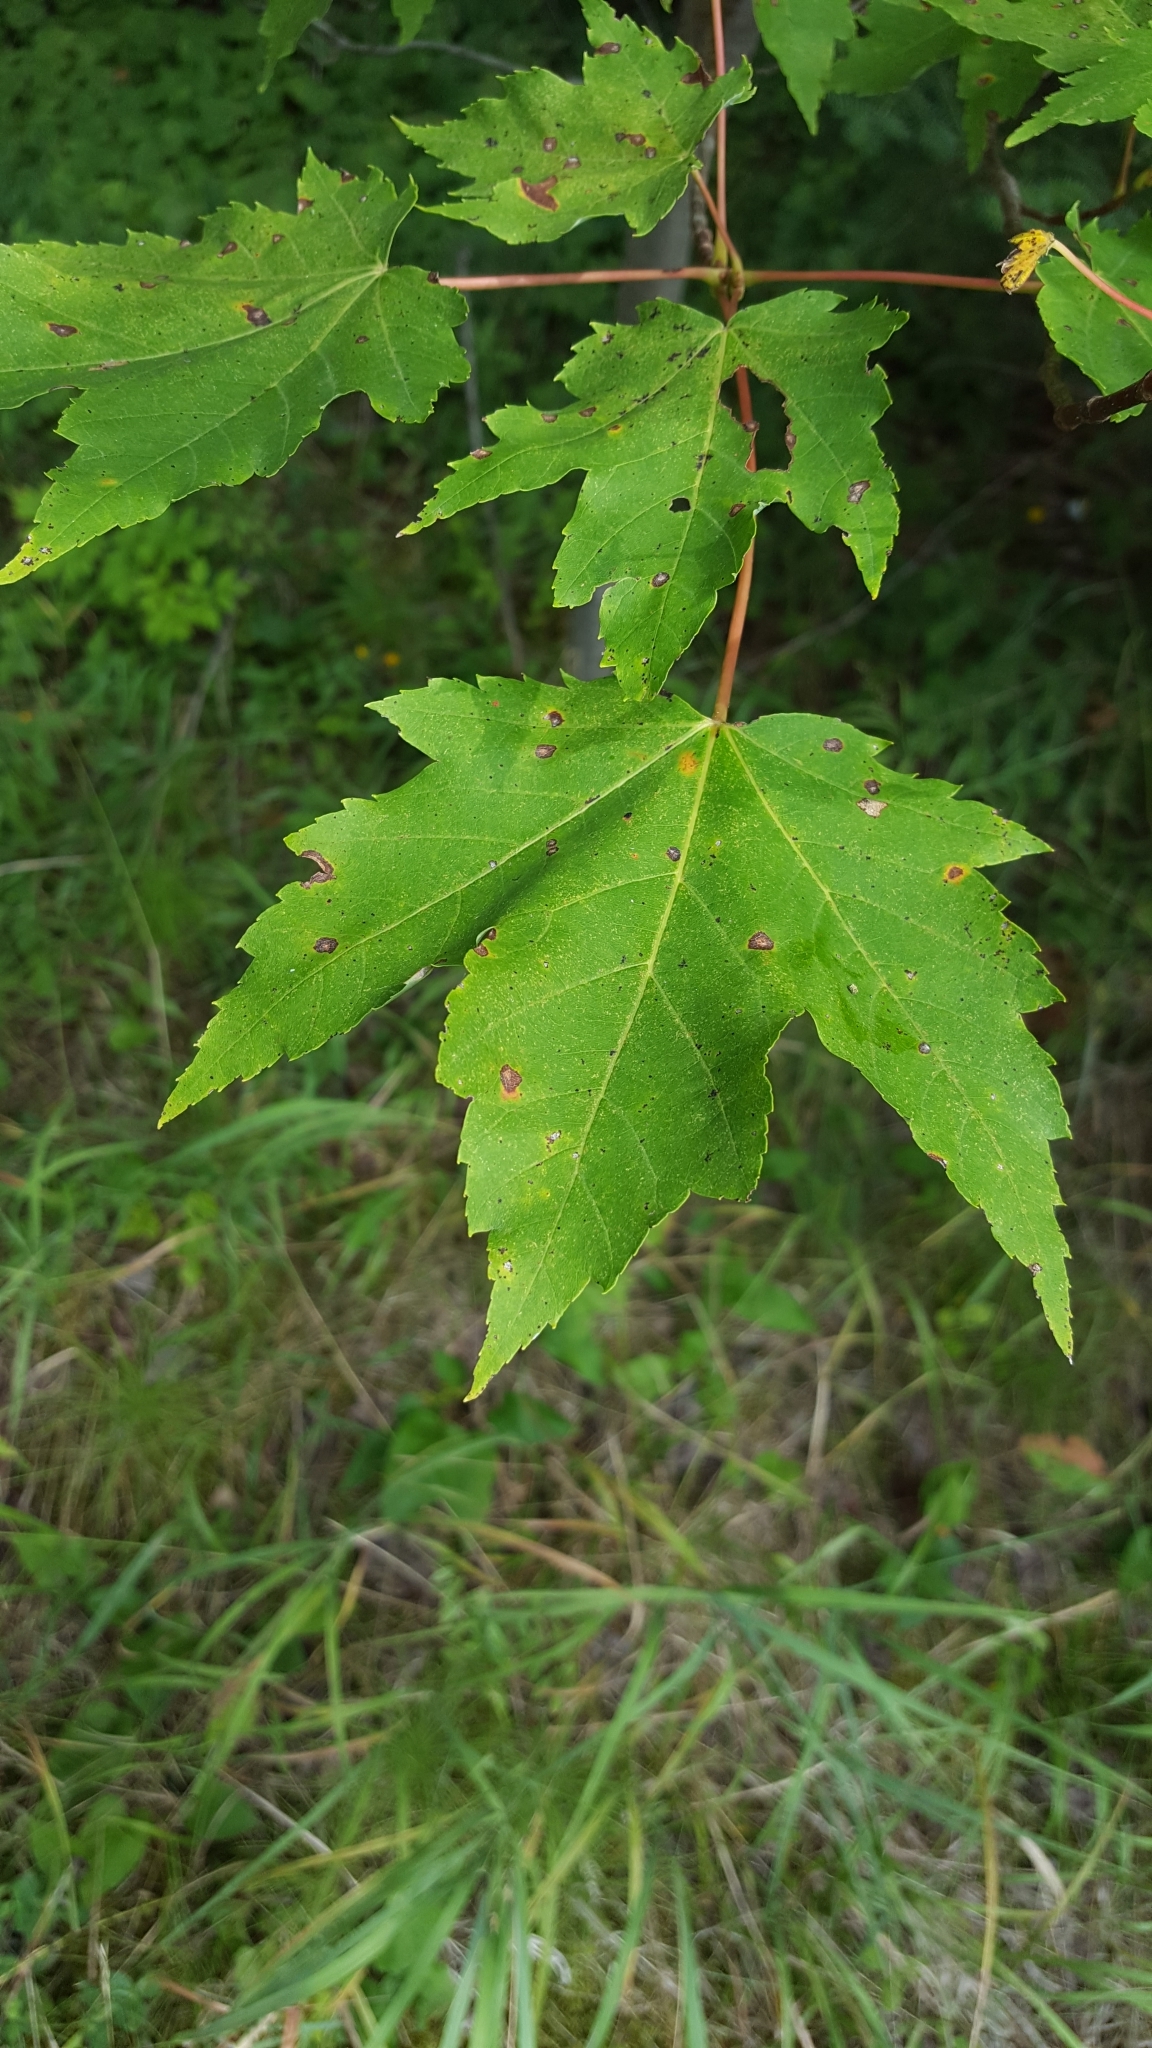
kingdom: Plantae
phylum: Tracheophyta
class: Magnoliopsida
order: Sapindales
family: Sapindaceae
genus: Acer
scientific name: Acer rubrum
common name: Red maple
